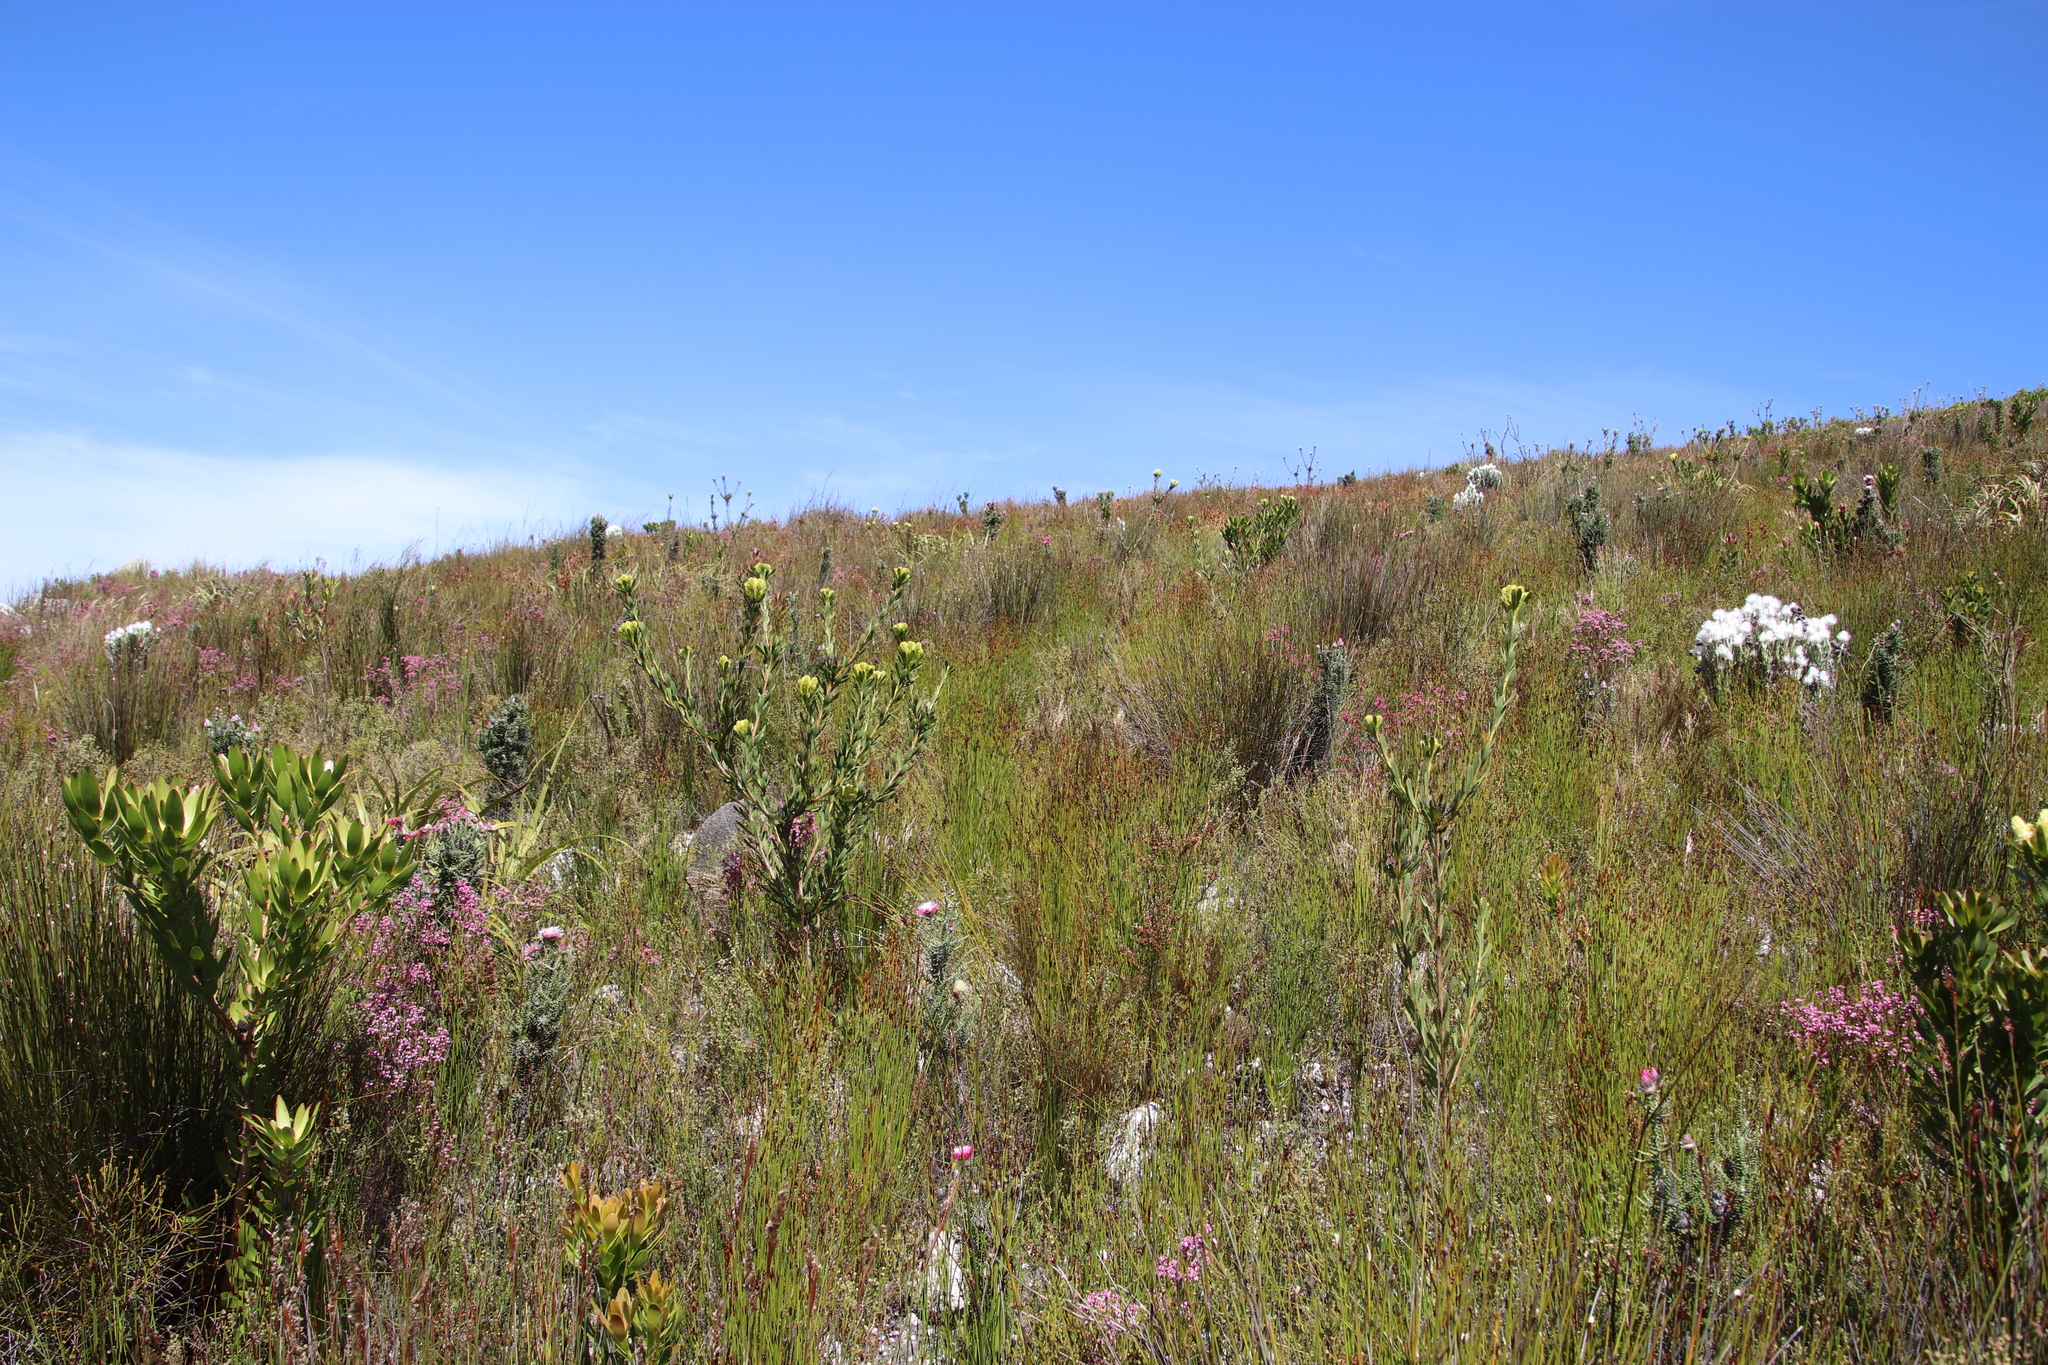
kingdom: Plantae
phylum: Tracheophyta
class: Magnoliopsida
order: Proteales
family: Proteaceae
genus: Aulax
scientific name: Aulax umbellata
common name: Broad-leaf featherbush
